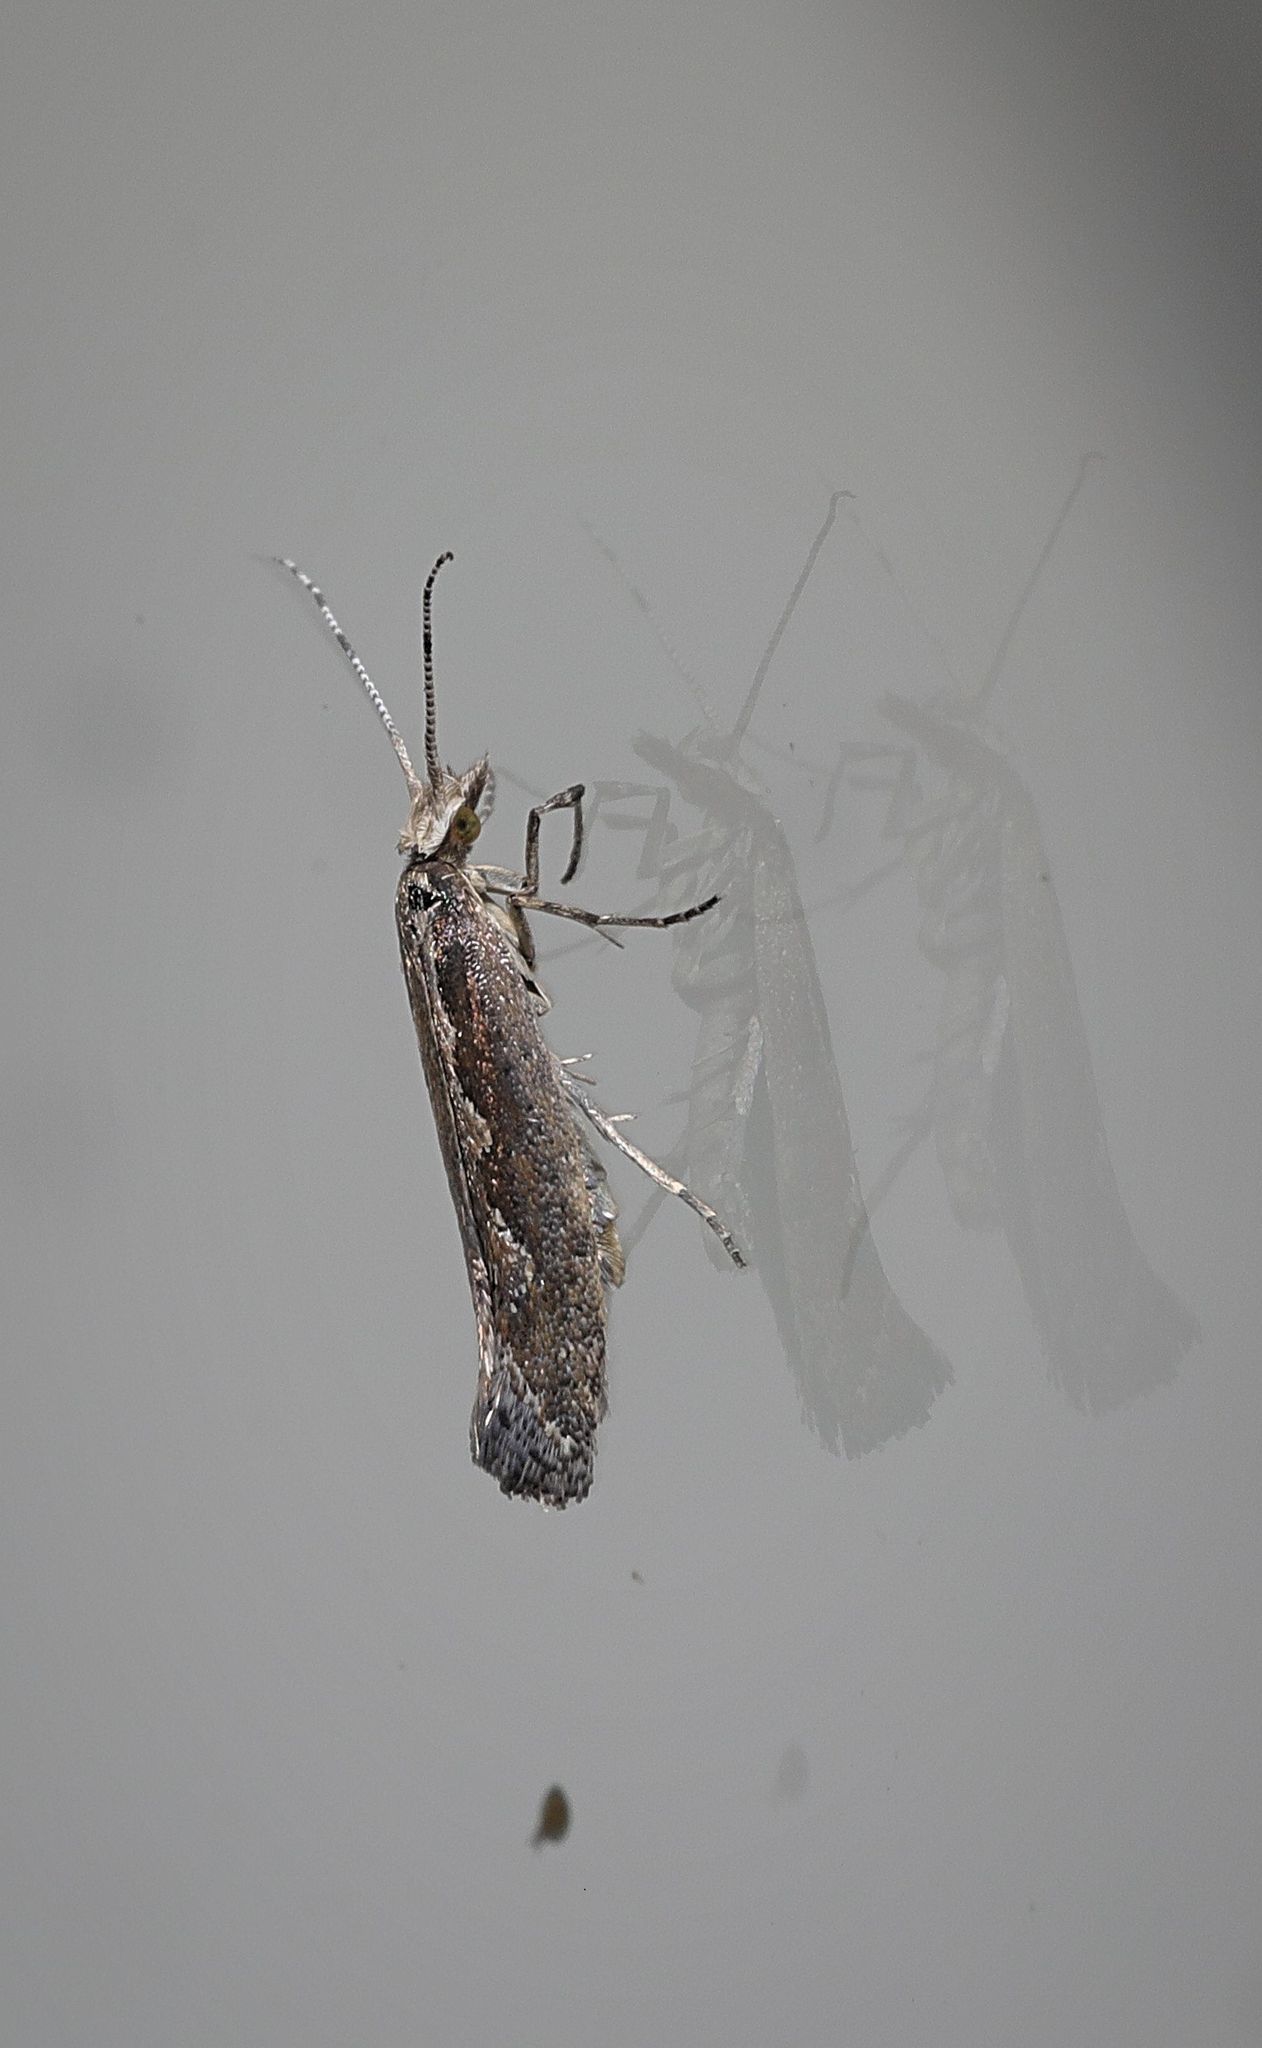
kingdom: Animalia
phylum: Arthropoda
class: Insecta
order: Lepidoptera
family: Plutellidae
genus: Plutella
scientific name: Plutella xylostella
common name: Diamond-back moth
